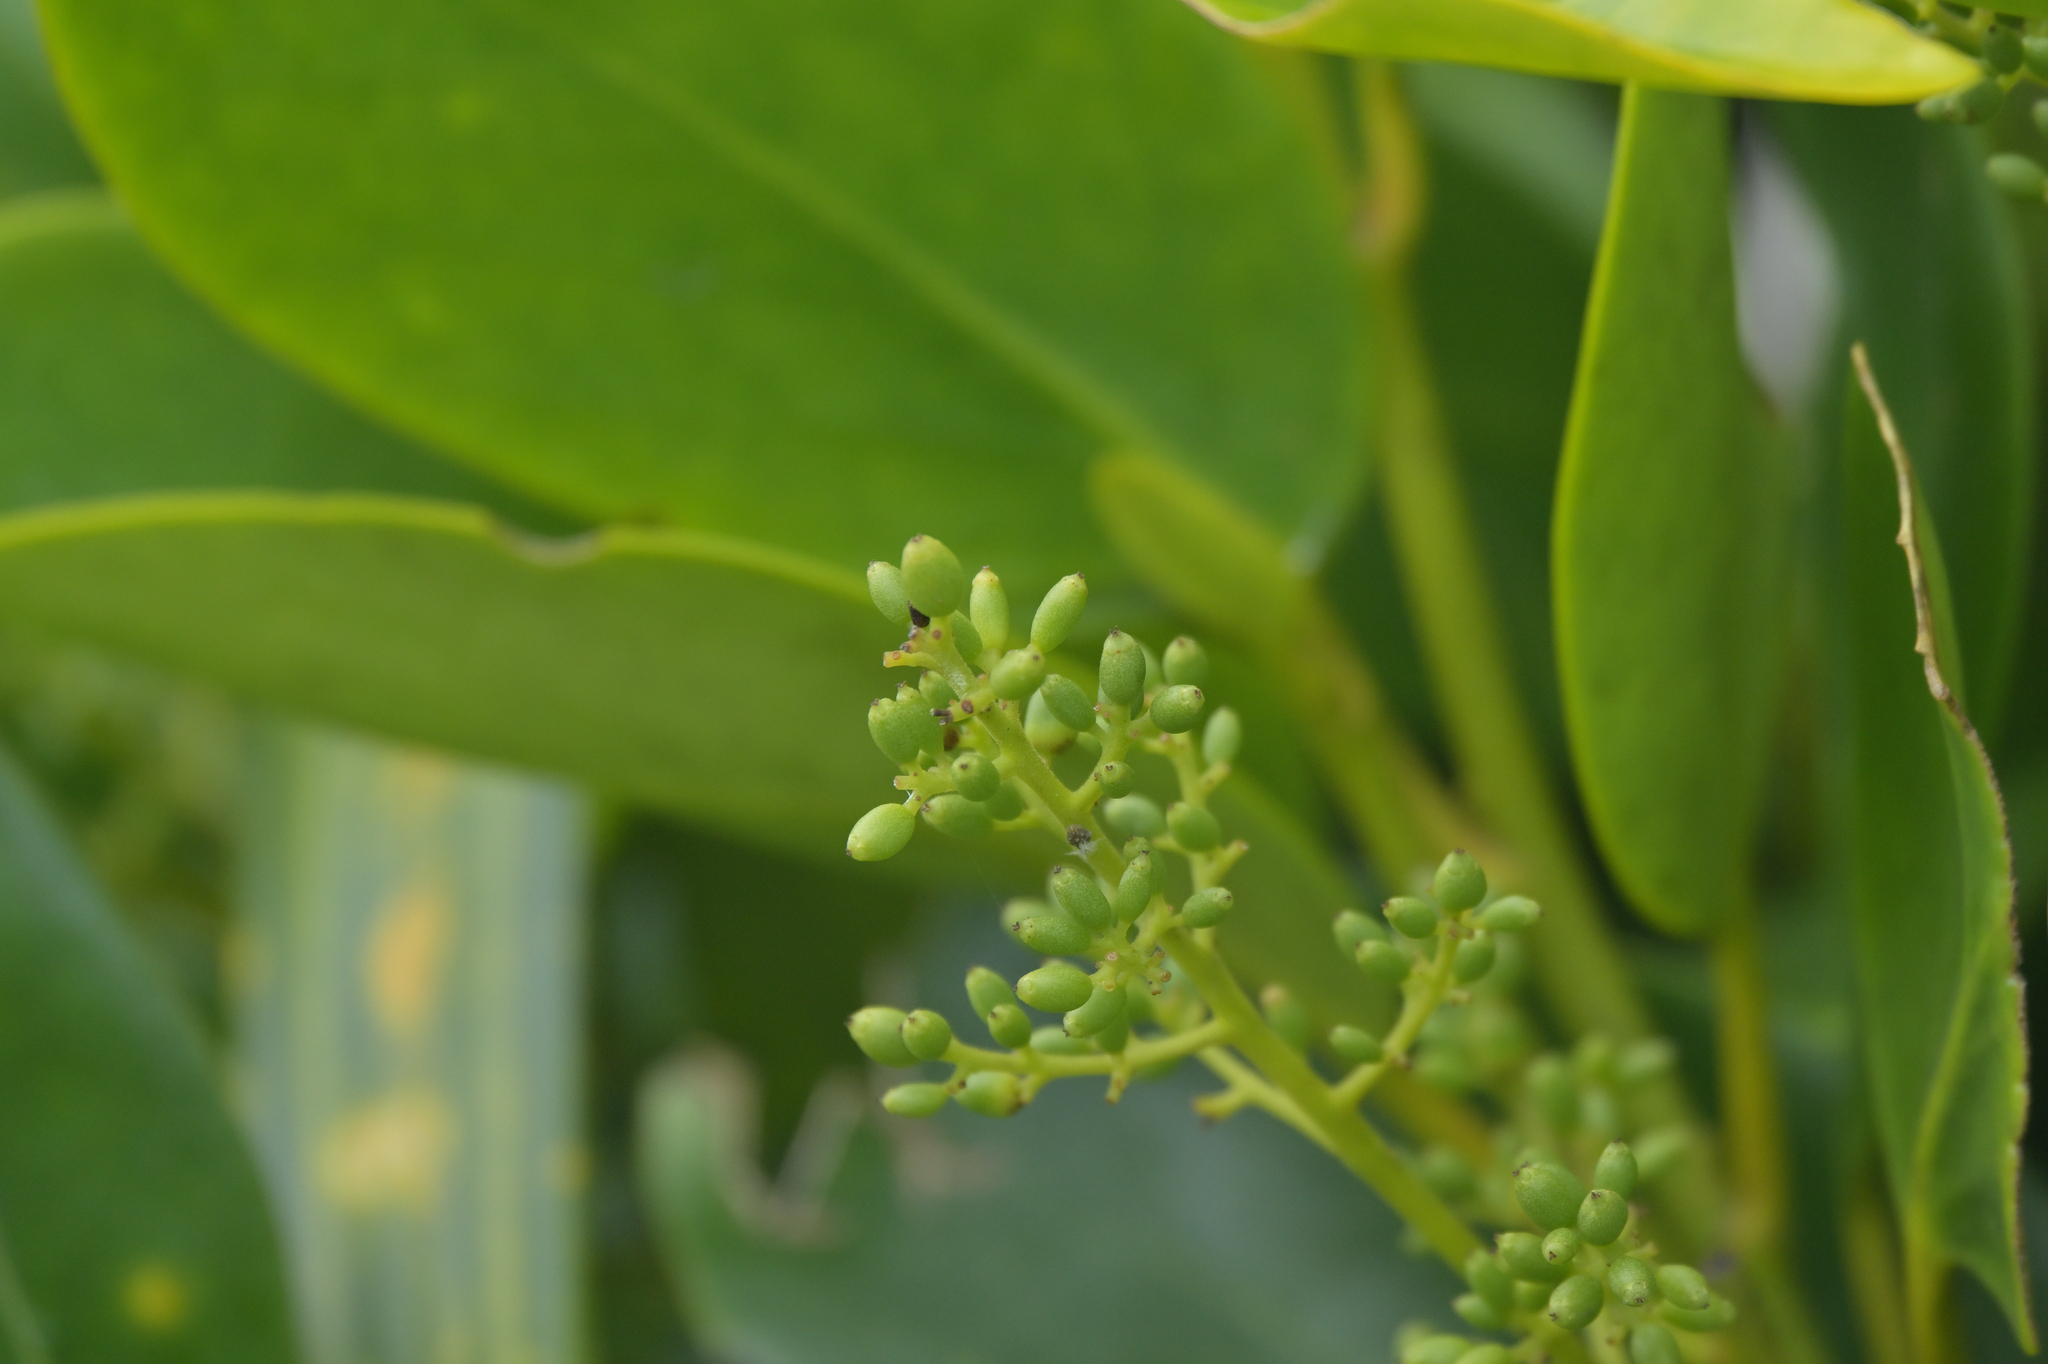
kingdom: Plantae
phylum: Tracheophyta
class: Magnoliopsida
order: Apiales
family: Griseliniaceae
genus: Griselinia
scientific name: Griselinia lucida
